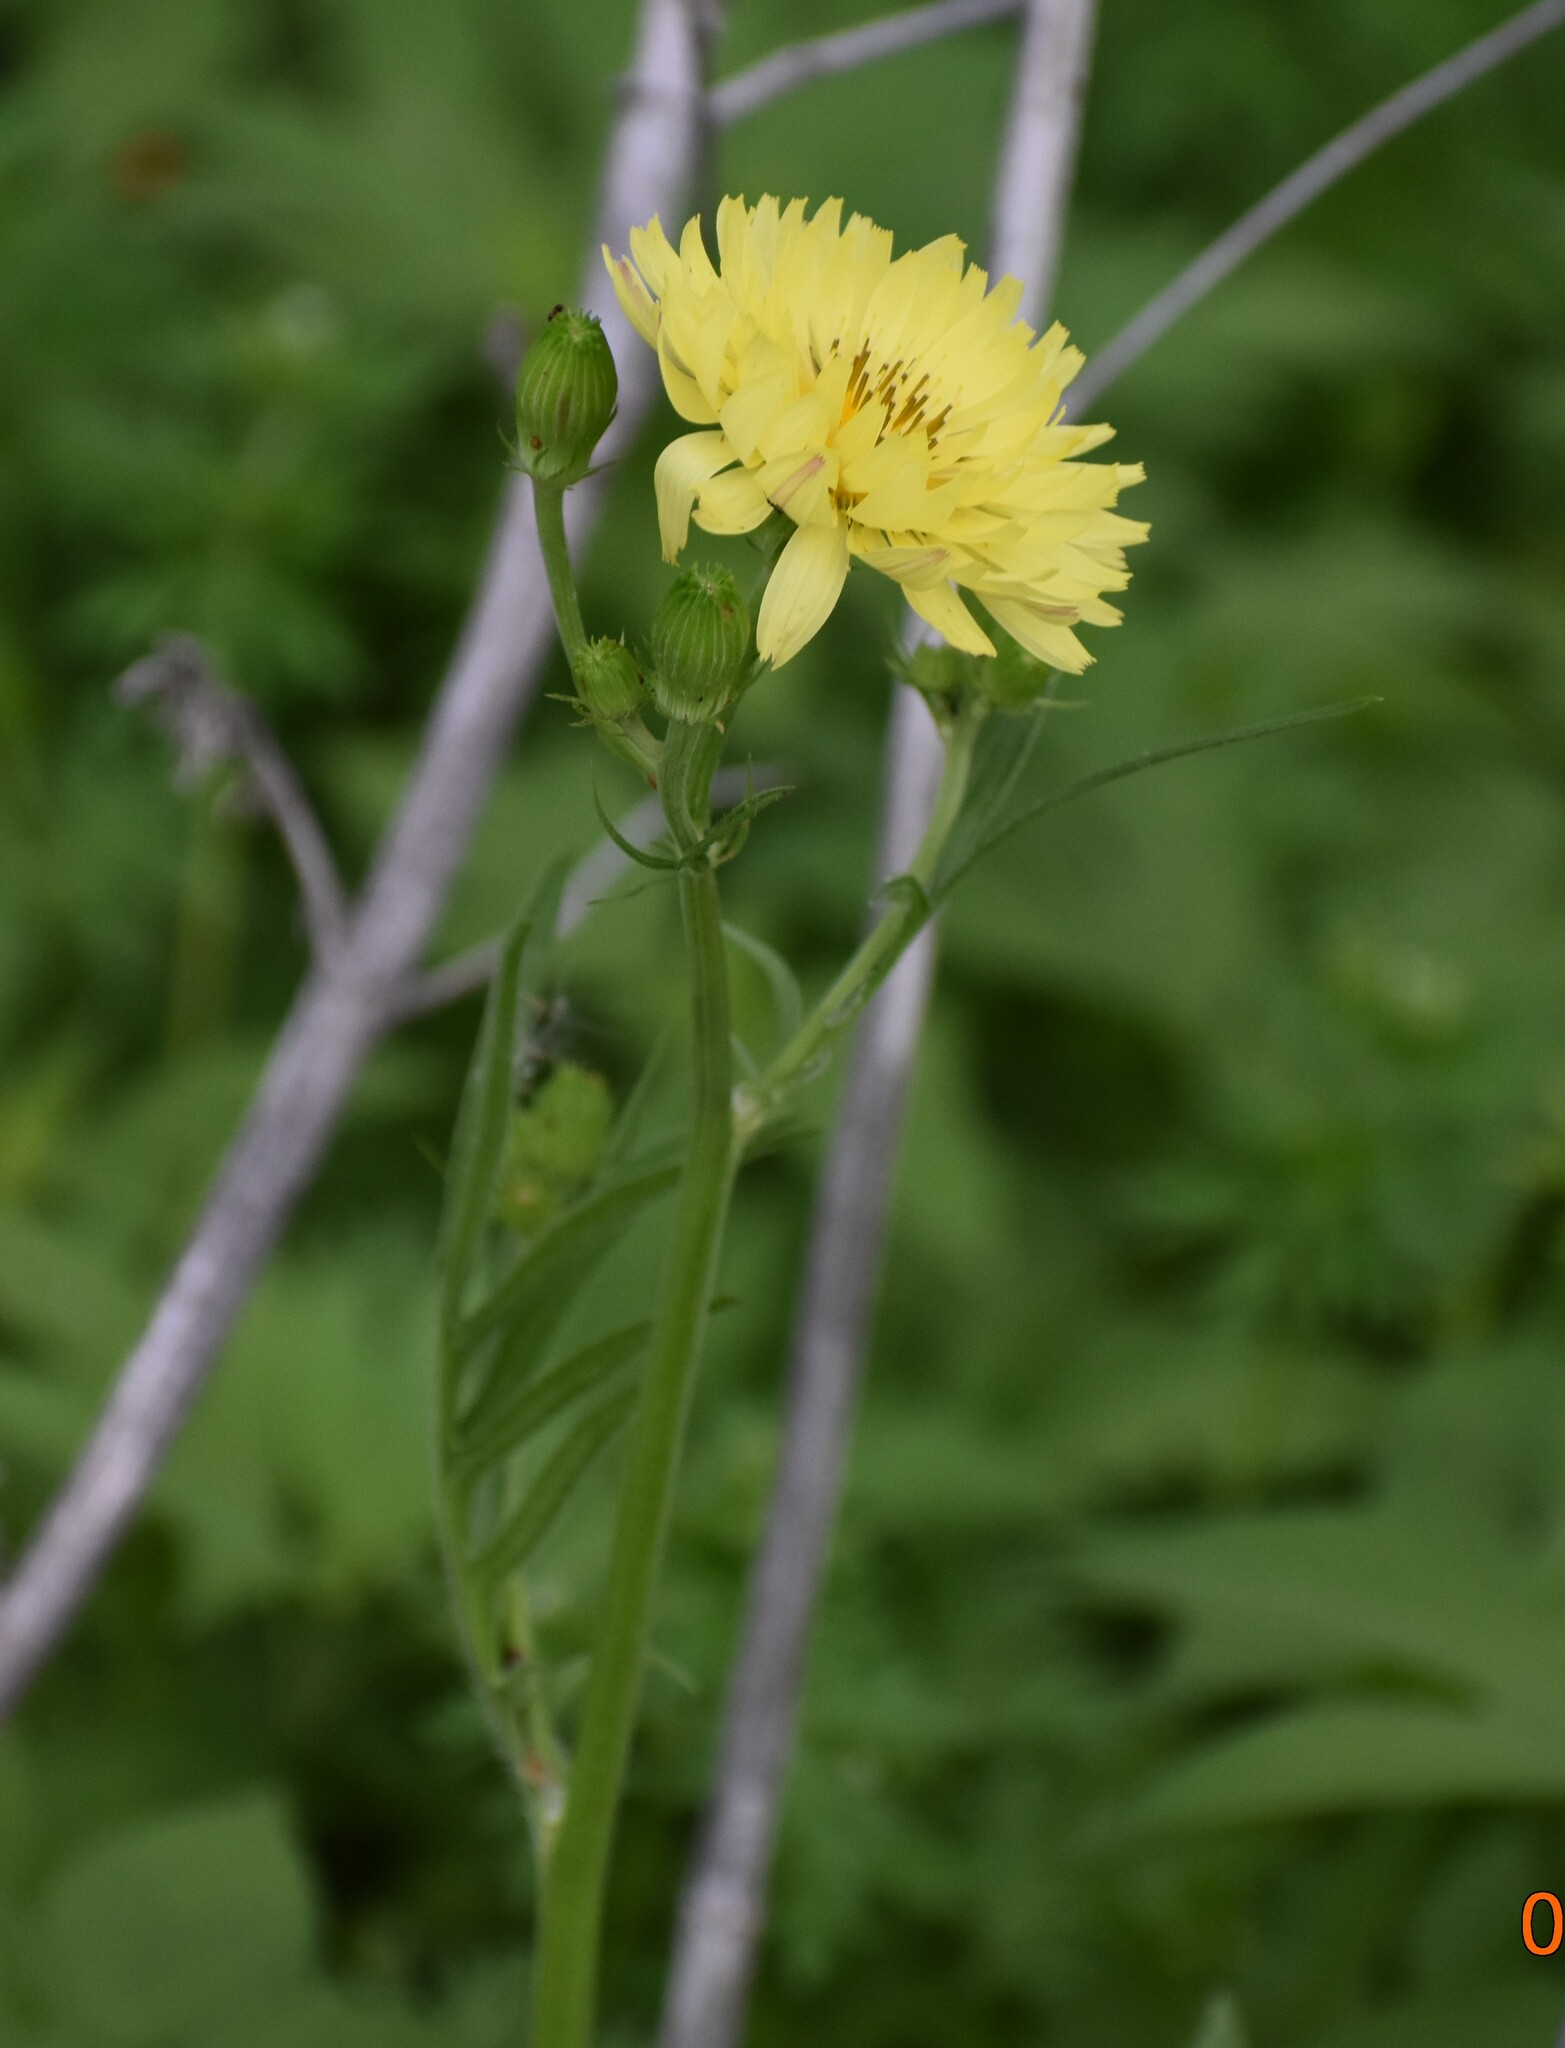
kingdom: Plantae
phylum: Tracheophyta
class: Magnoliopsida
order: Asterales
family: Asteraceae
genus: Pyrrhopappus
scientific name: Pyrrhopappus pauciflorus
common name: Texas false dandelion
